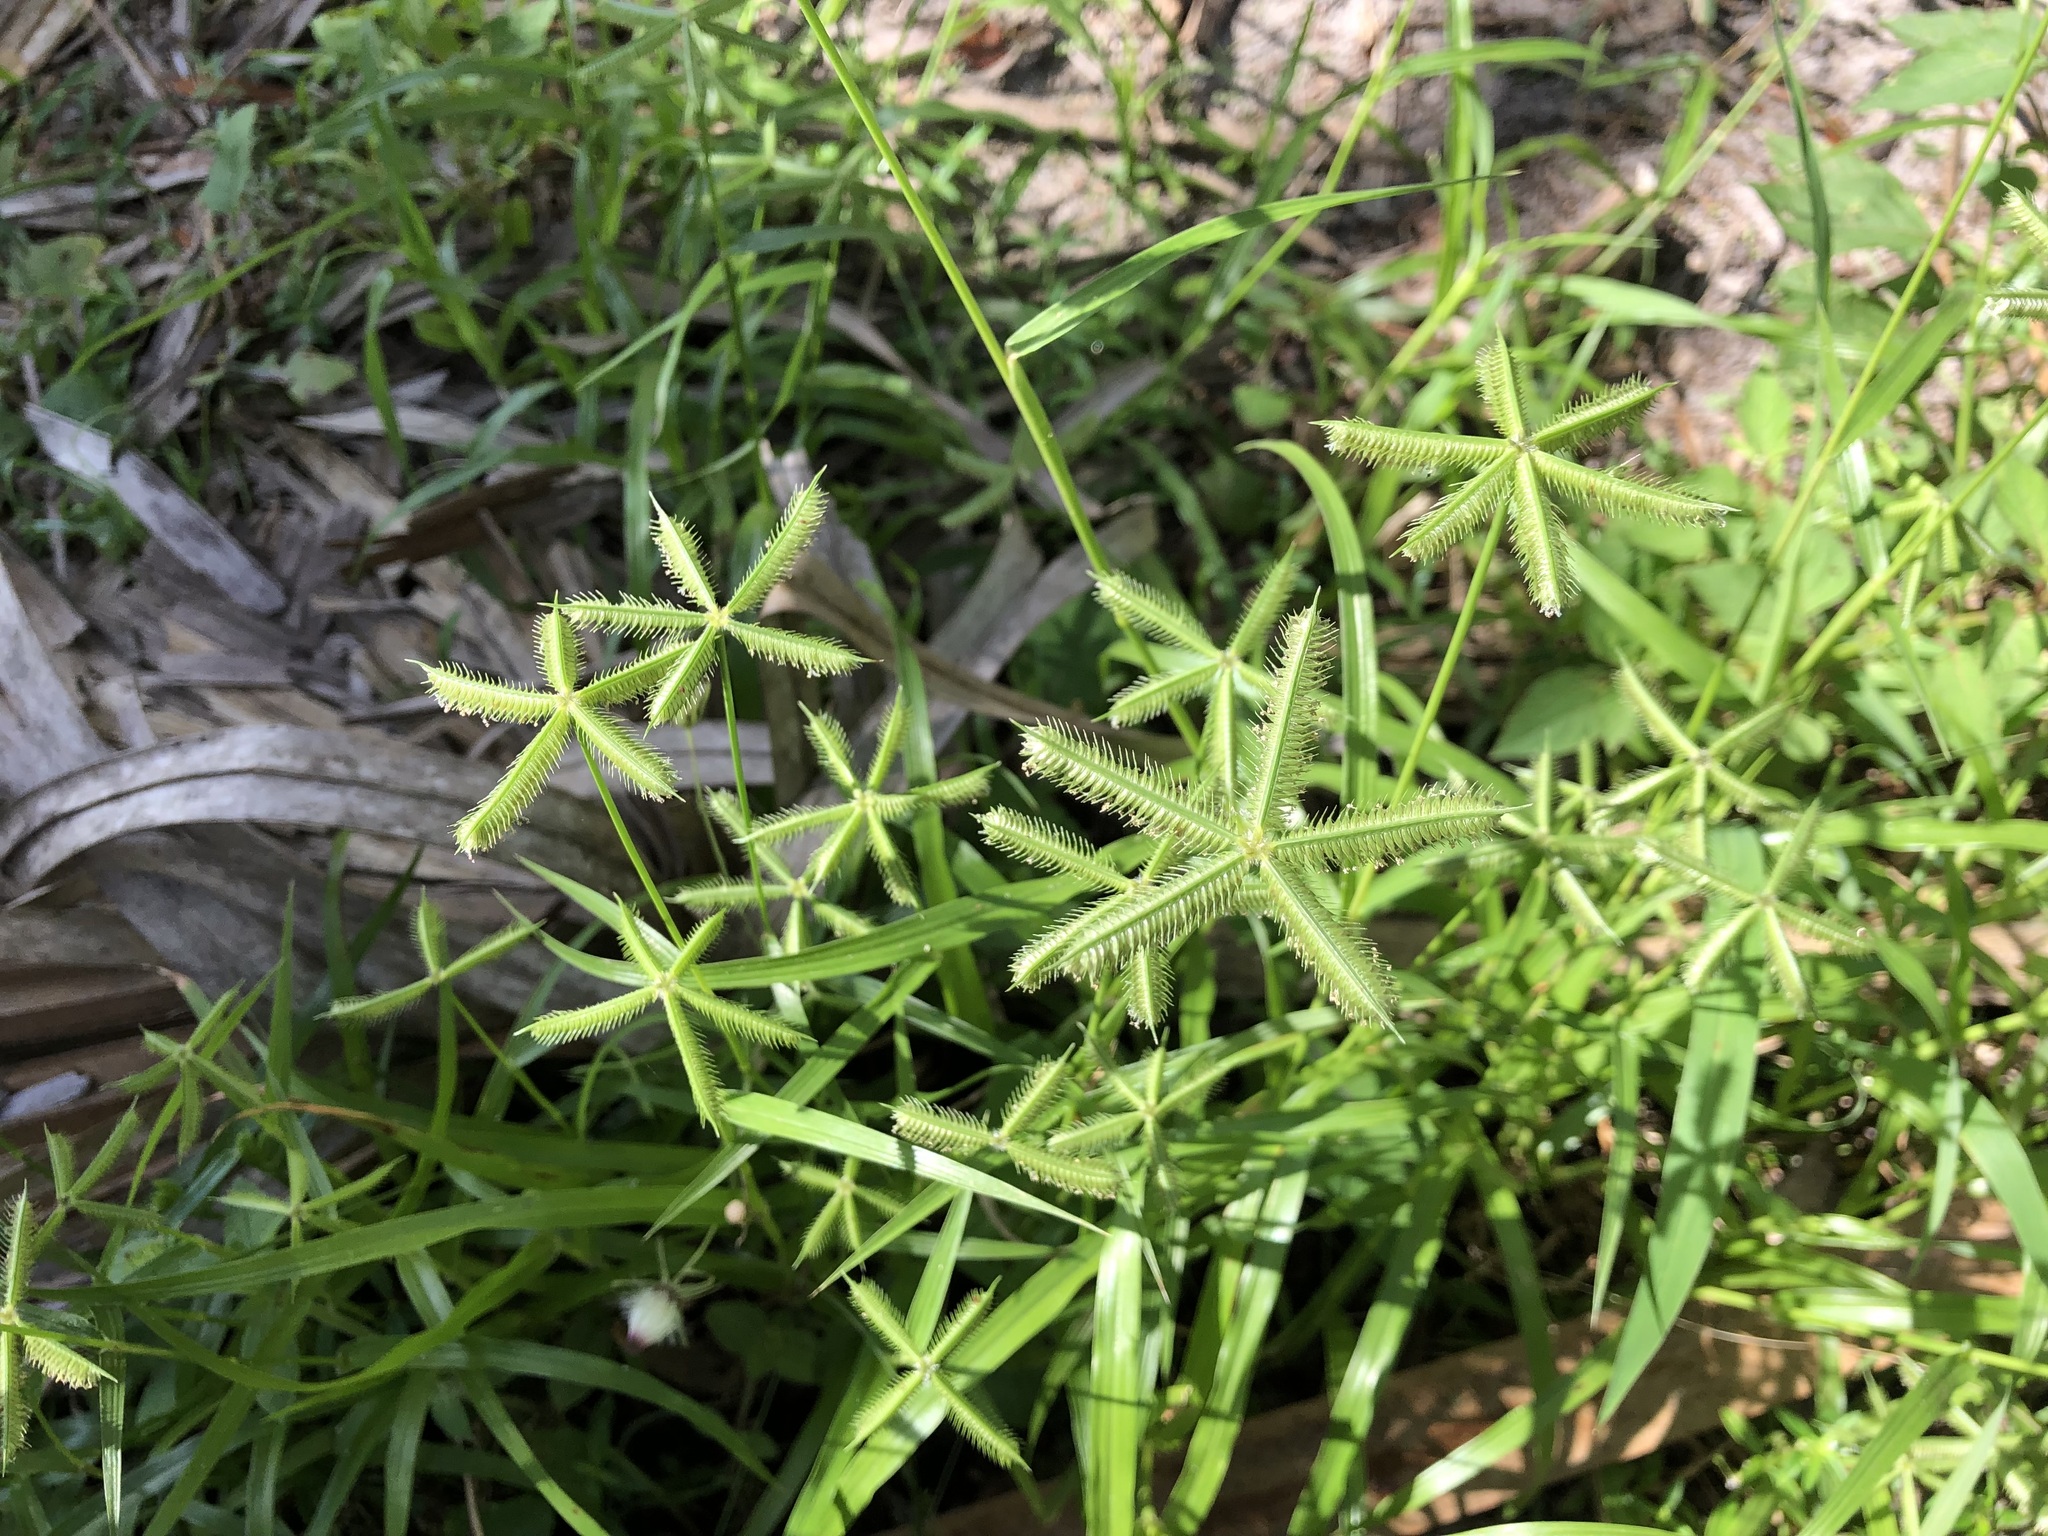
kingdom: Plantae
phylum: Tracheophyta
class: Liliopsida
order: Poales
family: Poaceae
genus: Dactyloctenium
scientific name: Dactyloctenium aegyptium
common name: Egyptian grass
